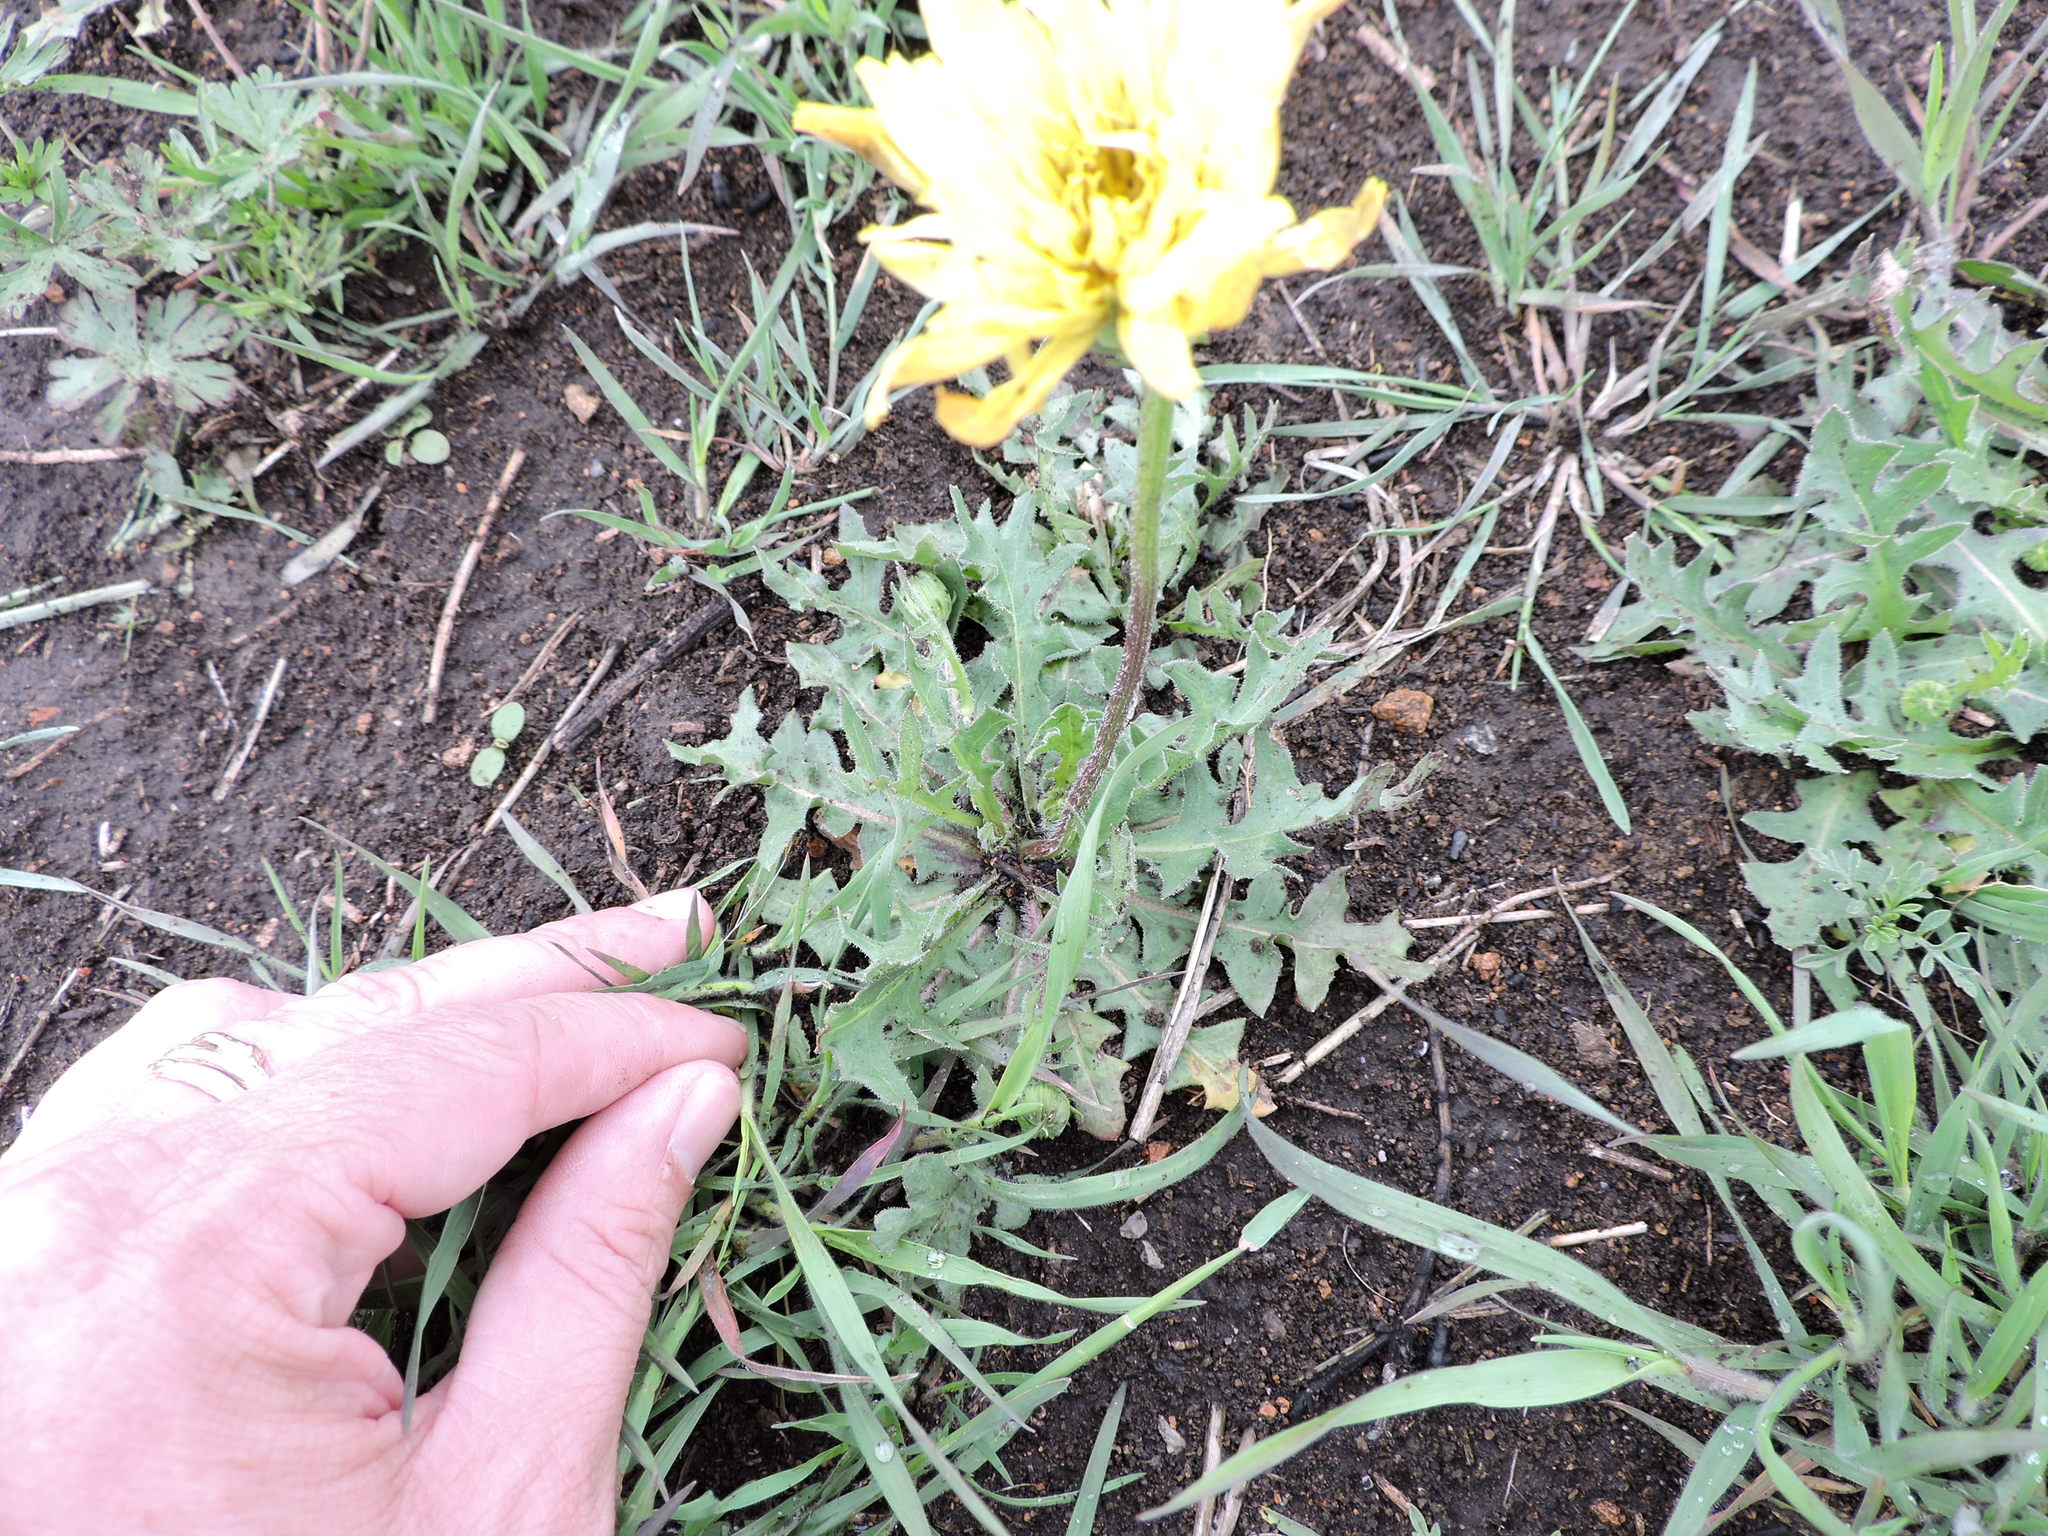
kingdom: Plantae
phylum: Tracheophyta
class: Magnoliopsida
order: Asterales
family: Asteraceae
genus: Pyrrhopappus
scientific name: Pyrrhopappus grandiflorus
